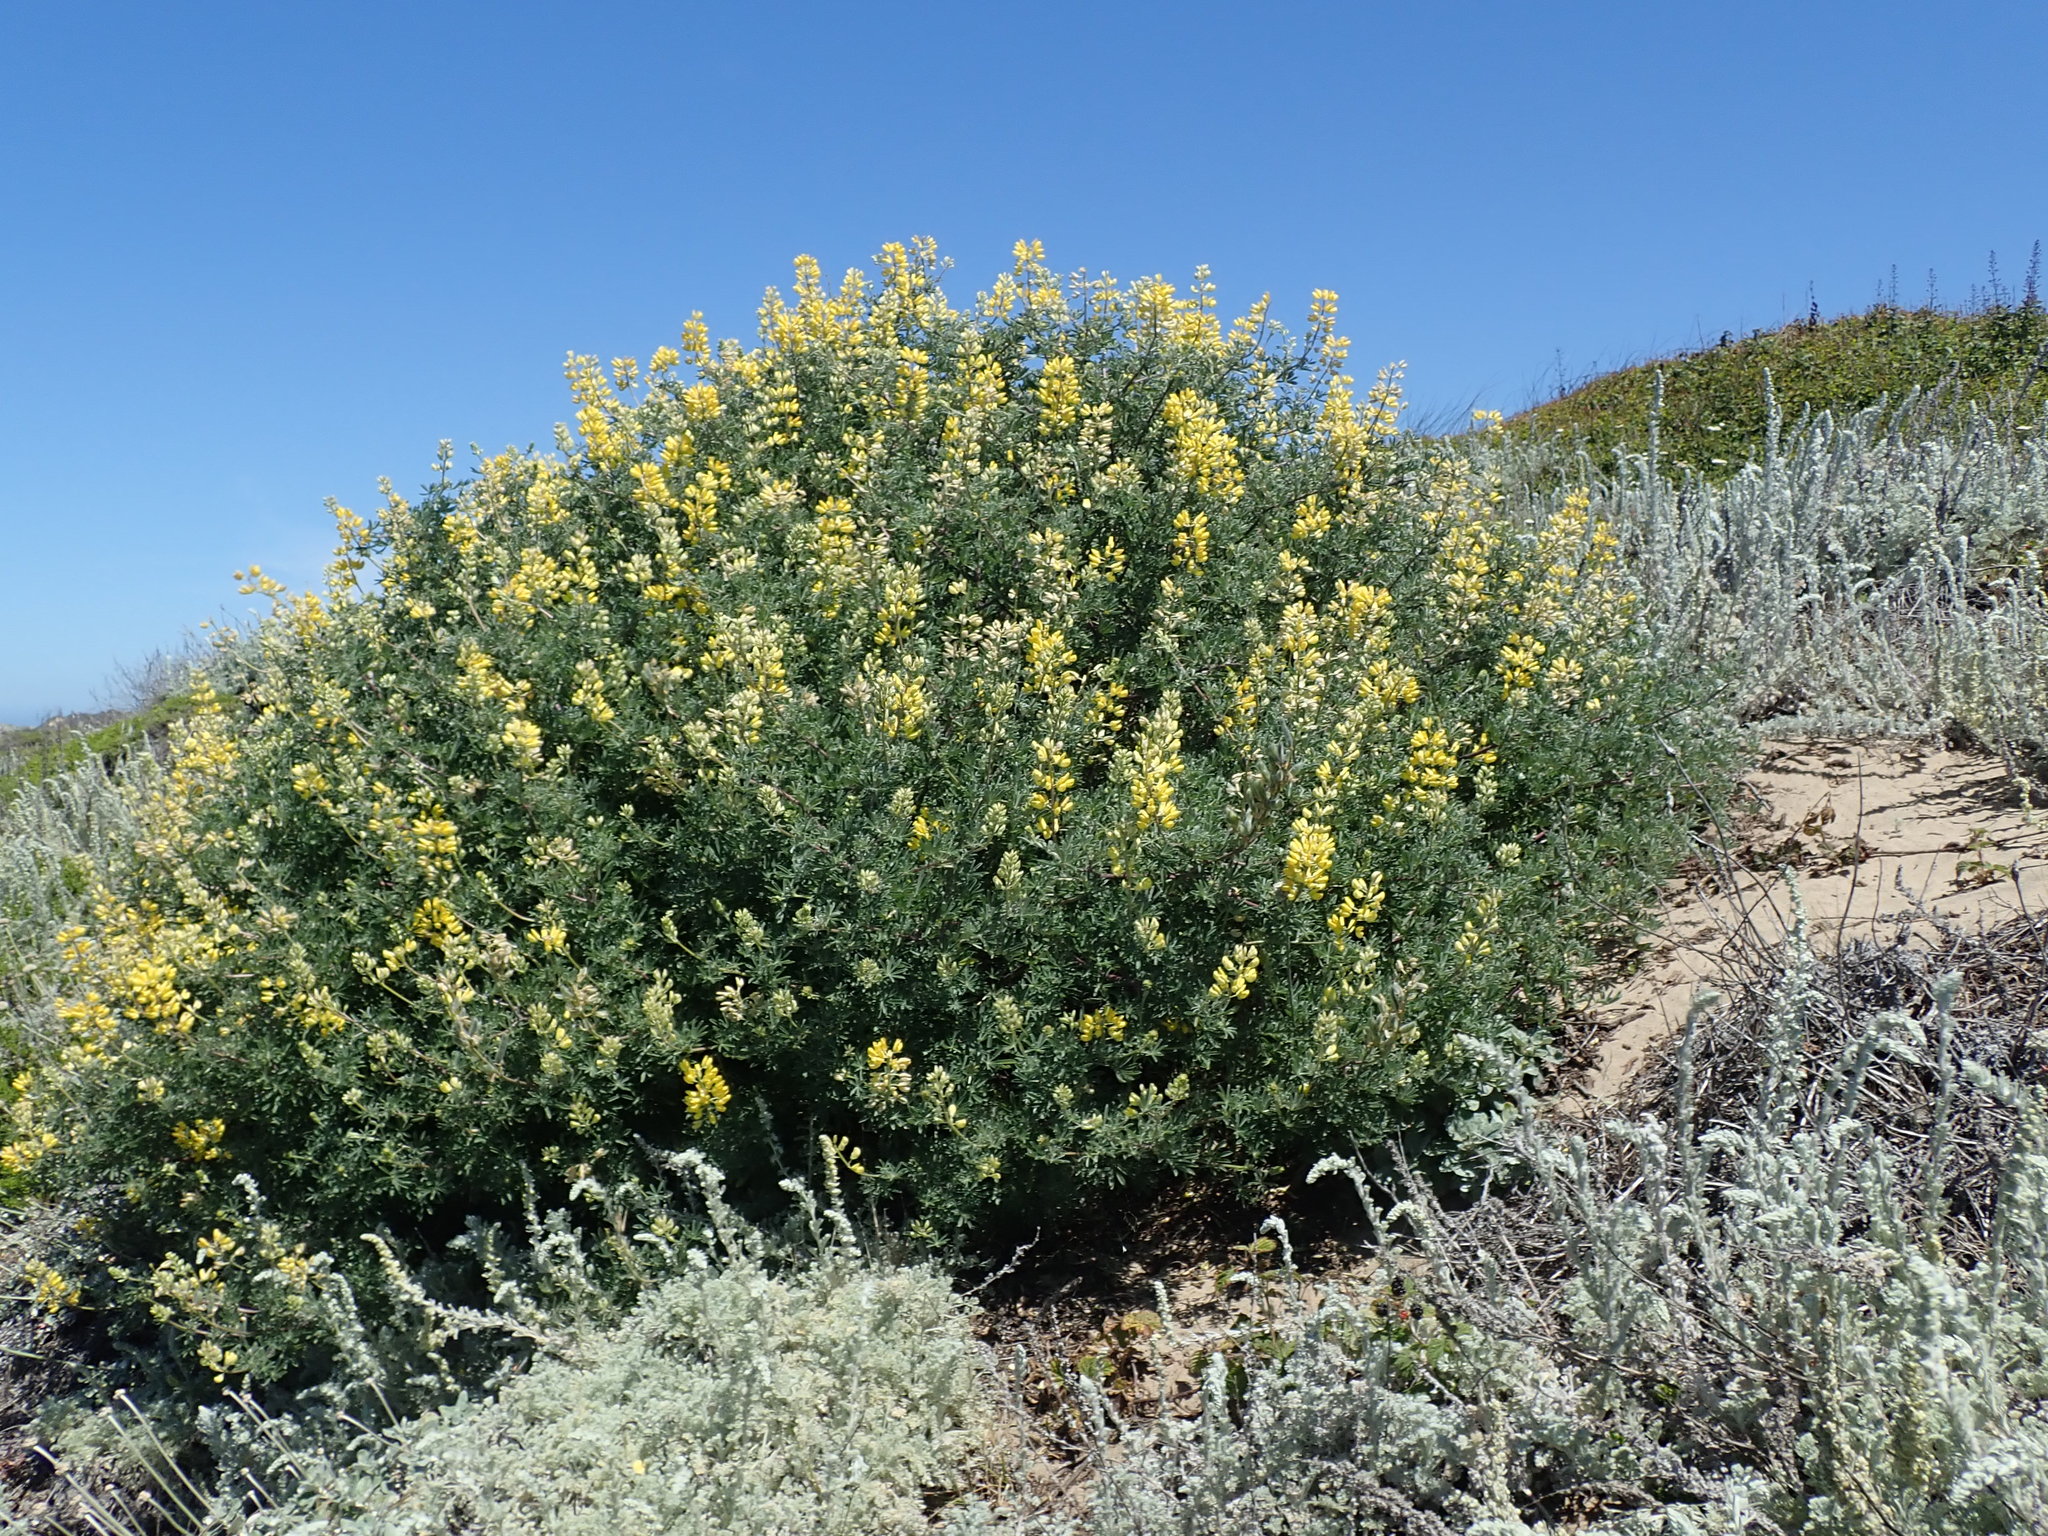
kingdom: Plantae
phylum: Tracheophyta
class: Magnoliopsida
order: Fabales
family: Fabaceae
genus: Lupinus
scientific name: Lupinus arboreus
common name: Yellow bush lupine
